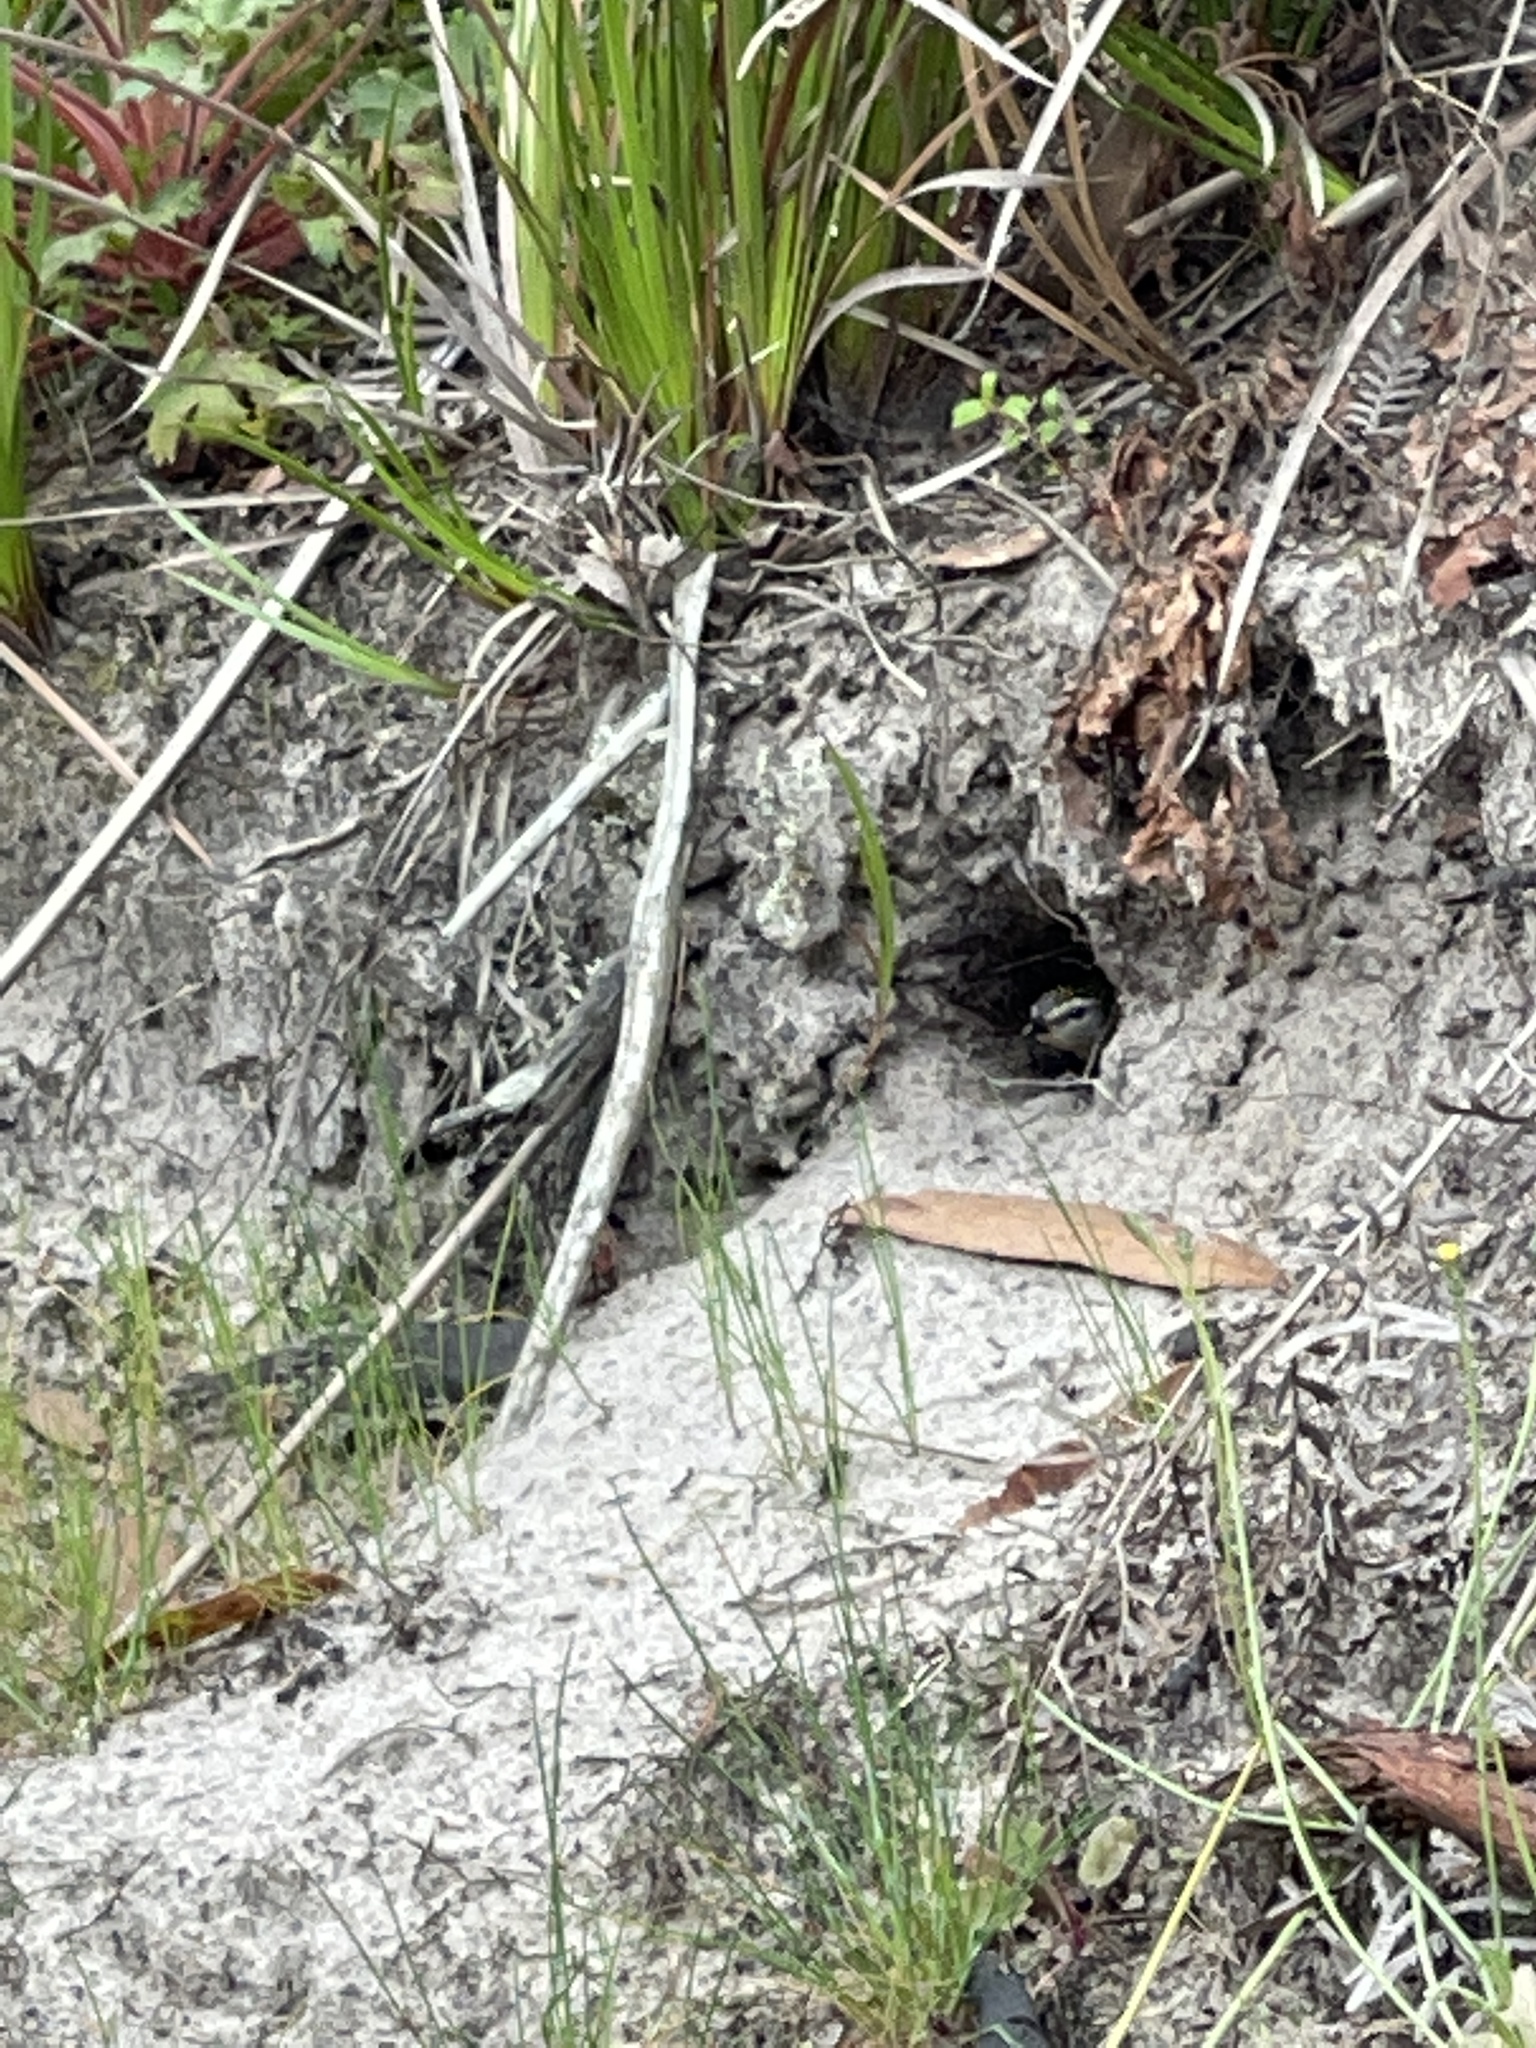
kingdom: Animalia
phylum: Chordata
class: Aves
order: Passeriformes
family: Pardalotidae
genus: Pardalotus
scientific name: Pardalotus punctatus
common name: Spotted pardalote
